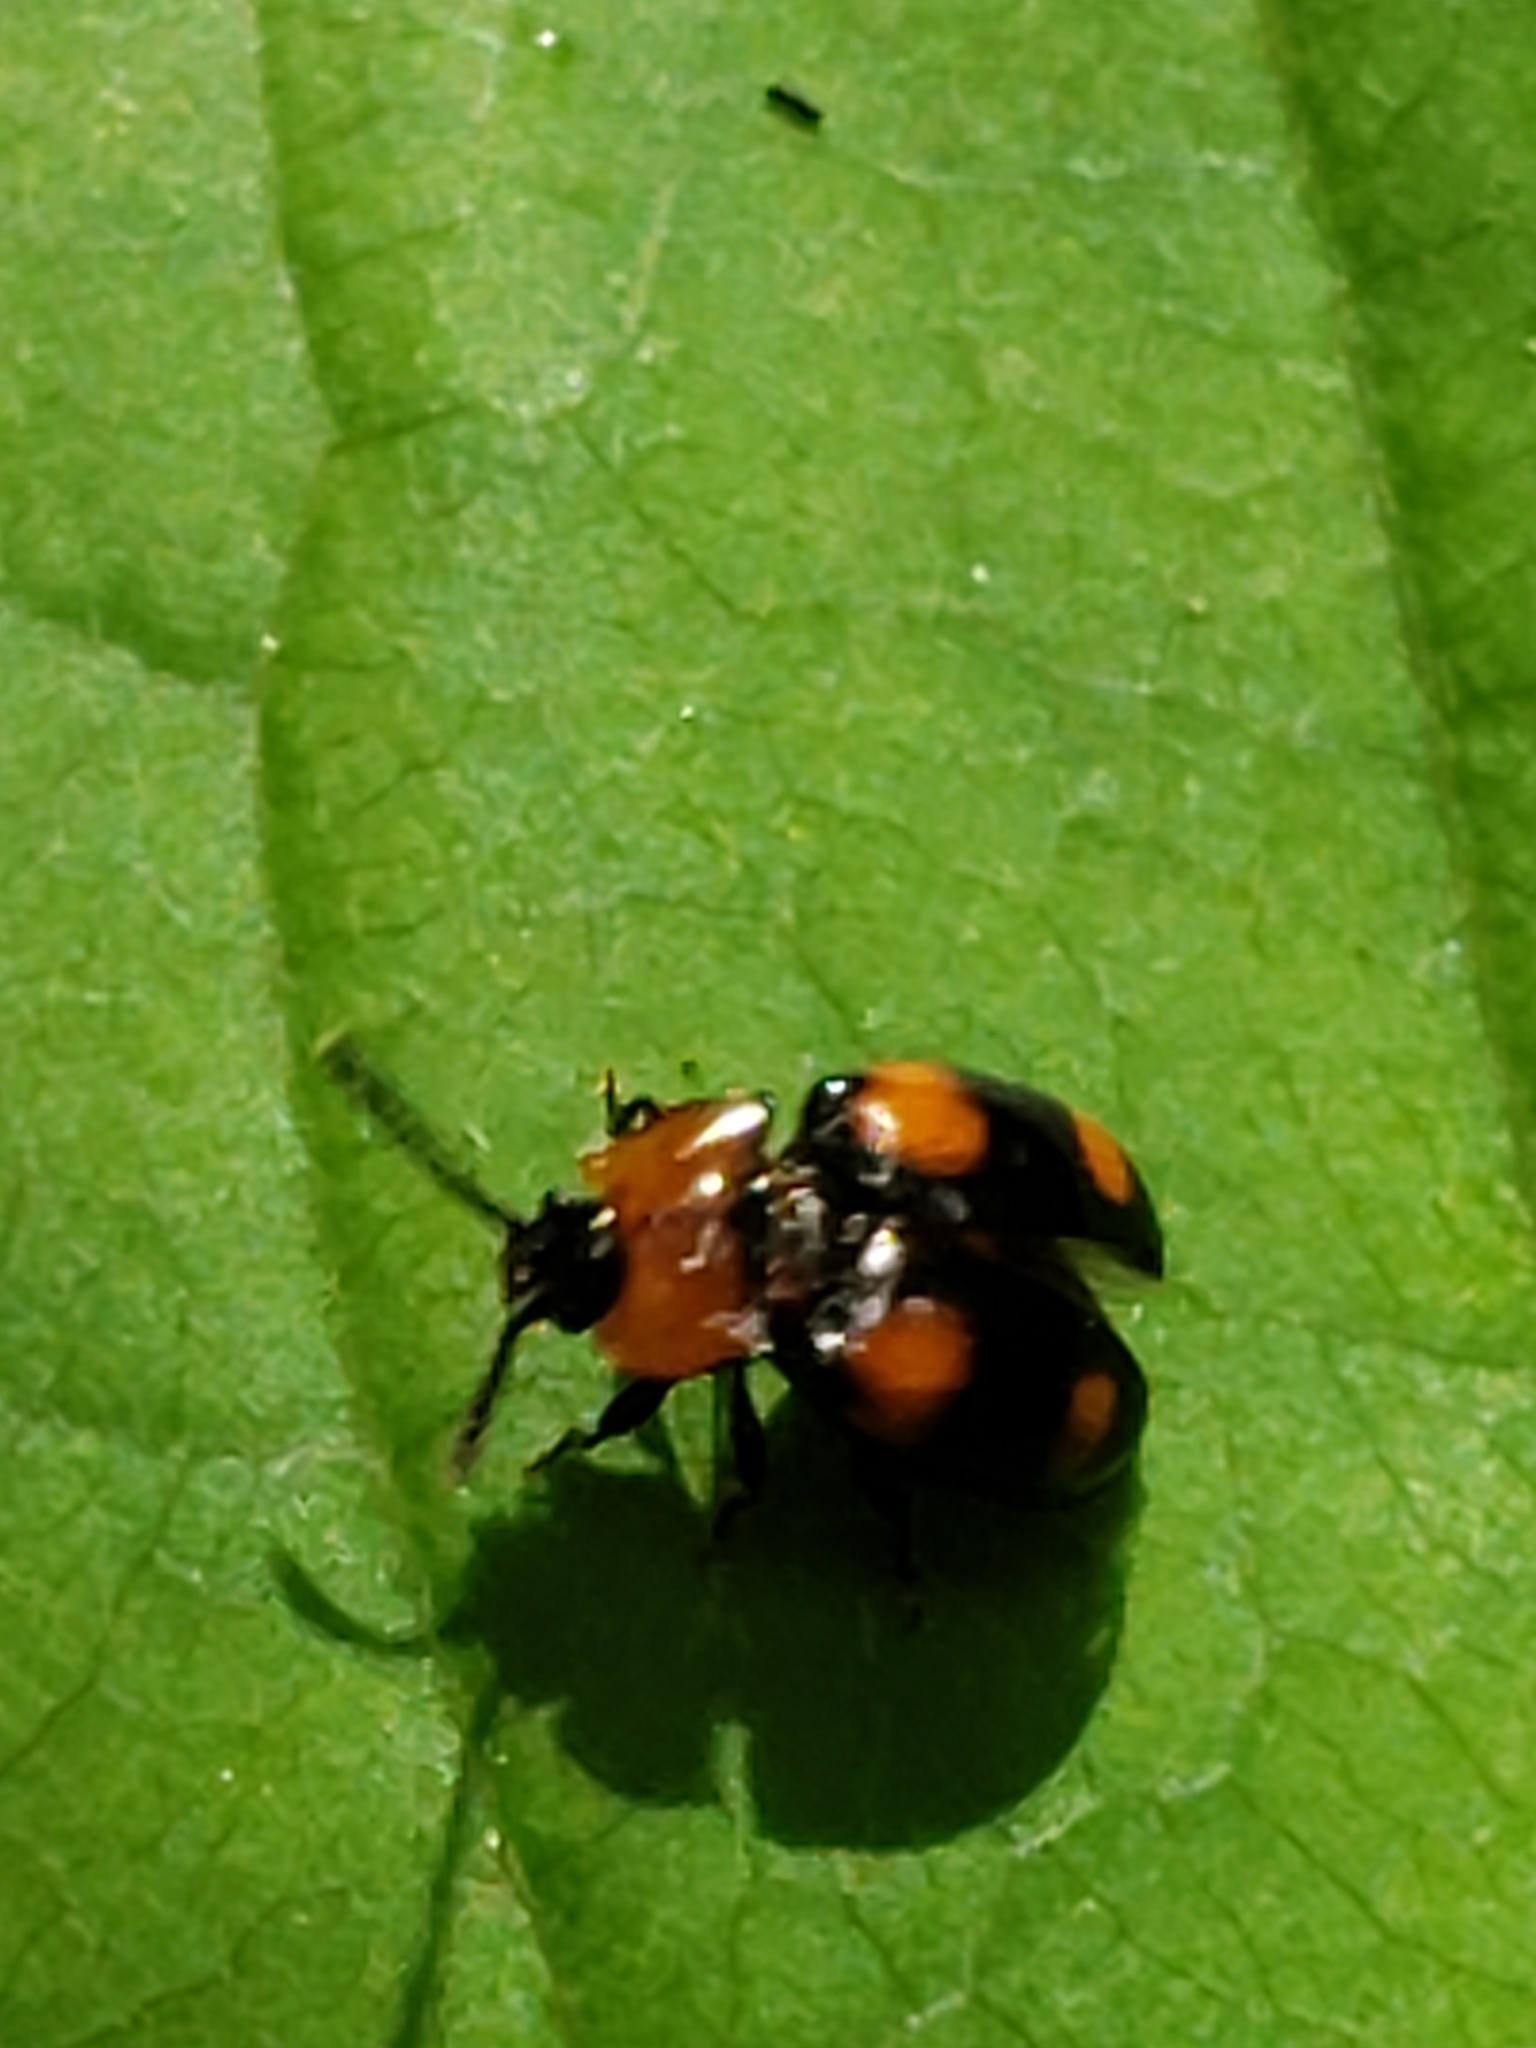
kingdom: Animalia
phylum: Arthropoda
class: Insecta
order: Coleoptera
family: Endomychidae
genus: Mycetina
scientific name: Mycetina perpulchra
